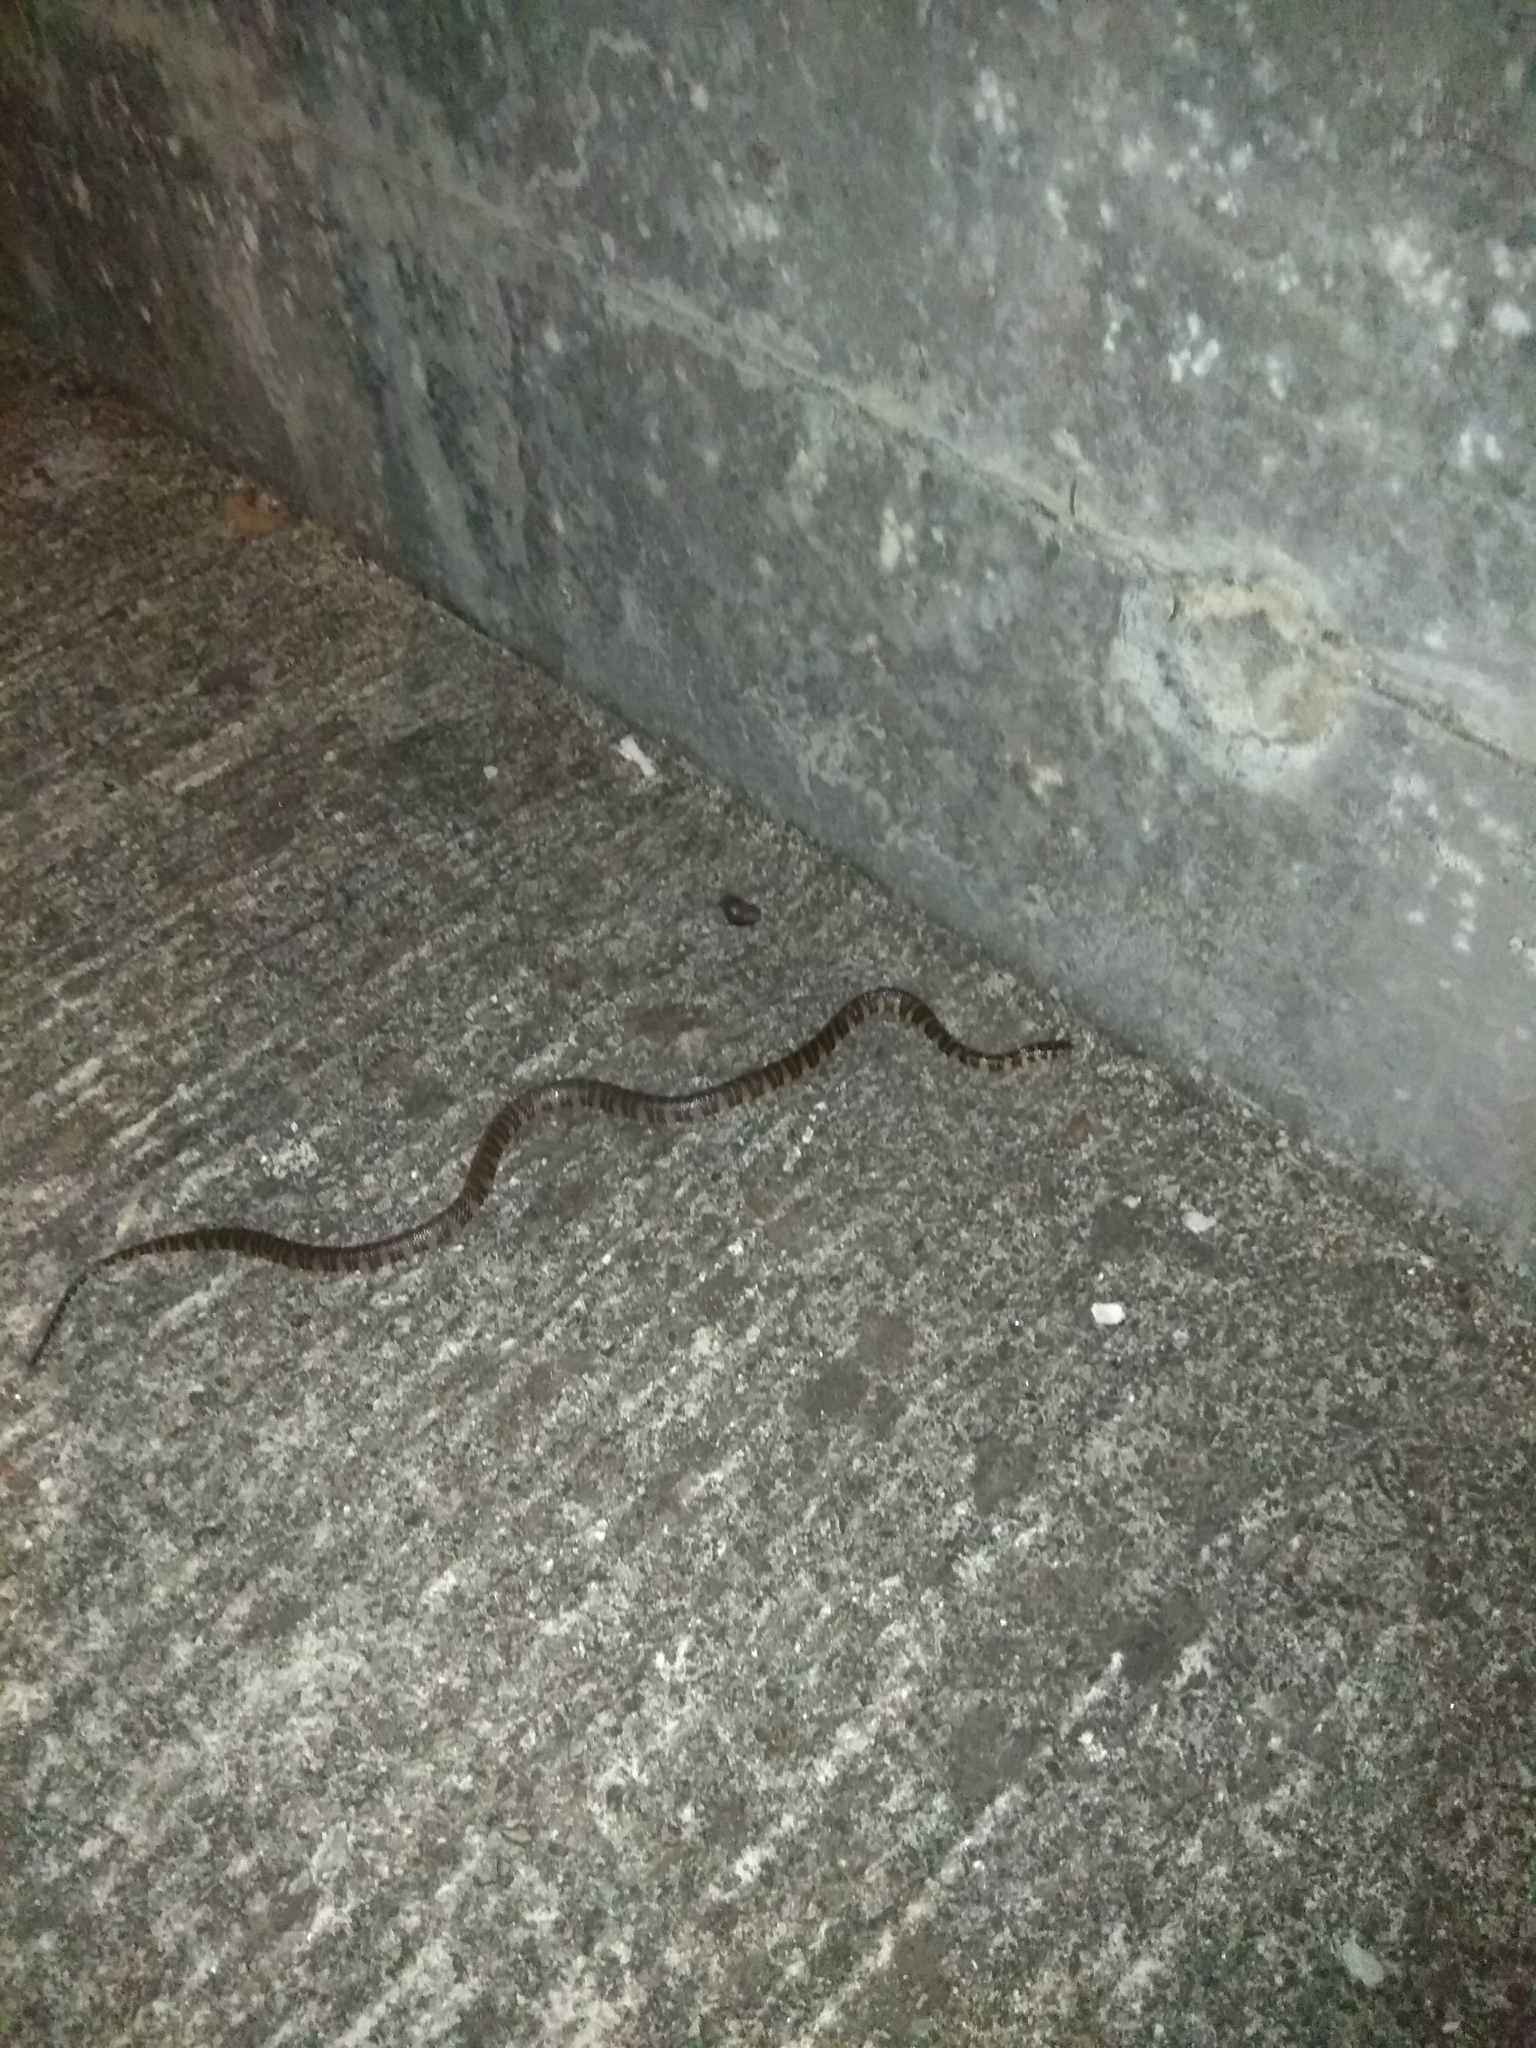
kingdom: Animalia
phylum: Chordata
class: Squamata
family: Colubridae
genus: Trimerodytes
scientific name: Trimerodytes balteatus
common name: Hainan mountain keelback
